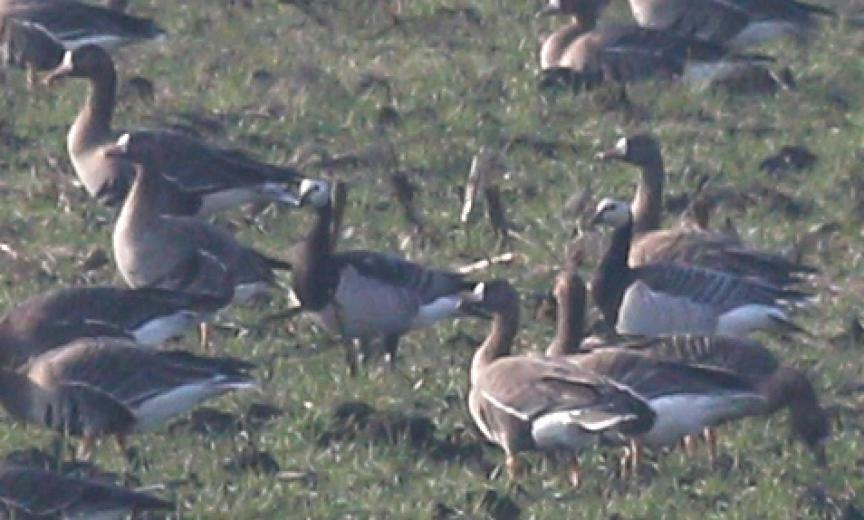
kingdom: Animalia
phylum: Chordata
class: Aves
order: Anseriformes
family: Anatidae
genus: Branta
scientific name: Branta leucopsis
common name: Barnacle goose
